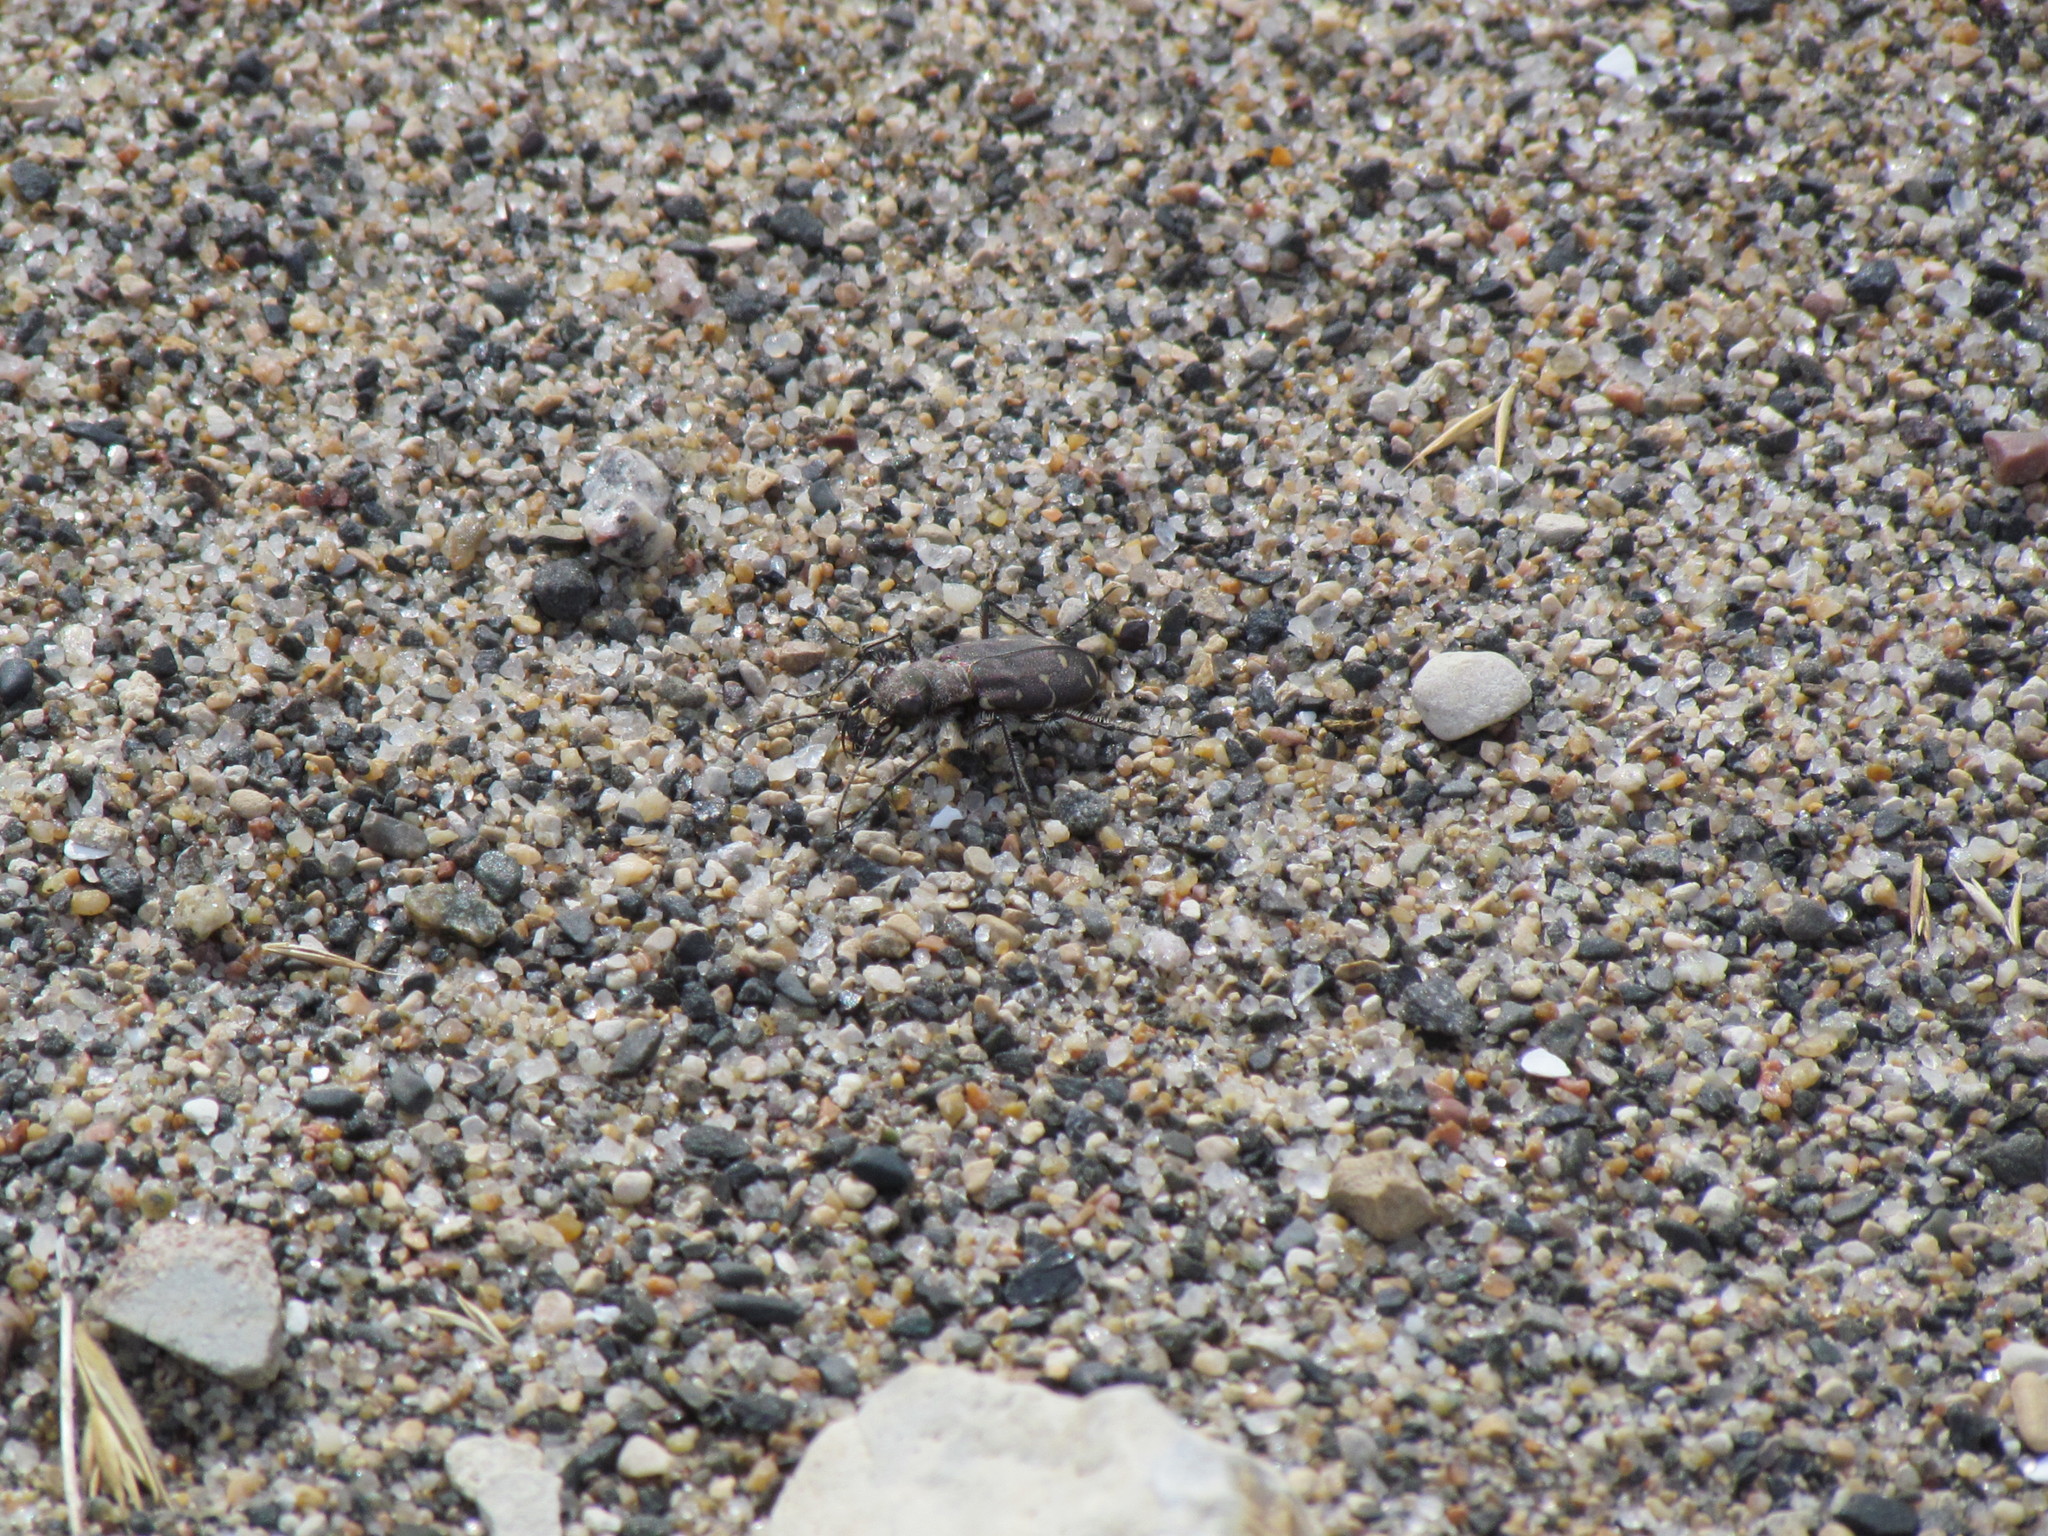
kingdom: Animalia
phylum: Arthropoda
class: Insecta
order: Coleoptera
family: Carabidae
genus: Cicindela
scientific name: Cicindela duodecimguttata
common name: Twelve-spotted tiger beetle
